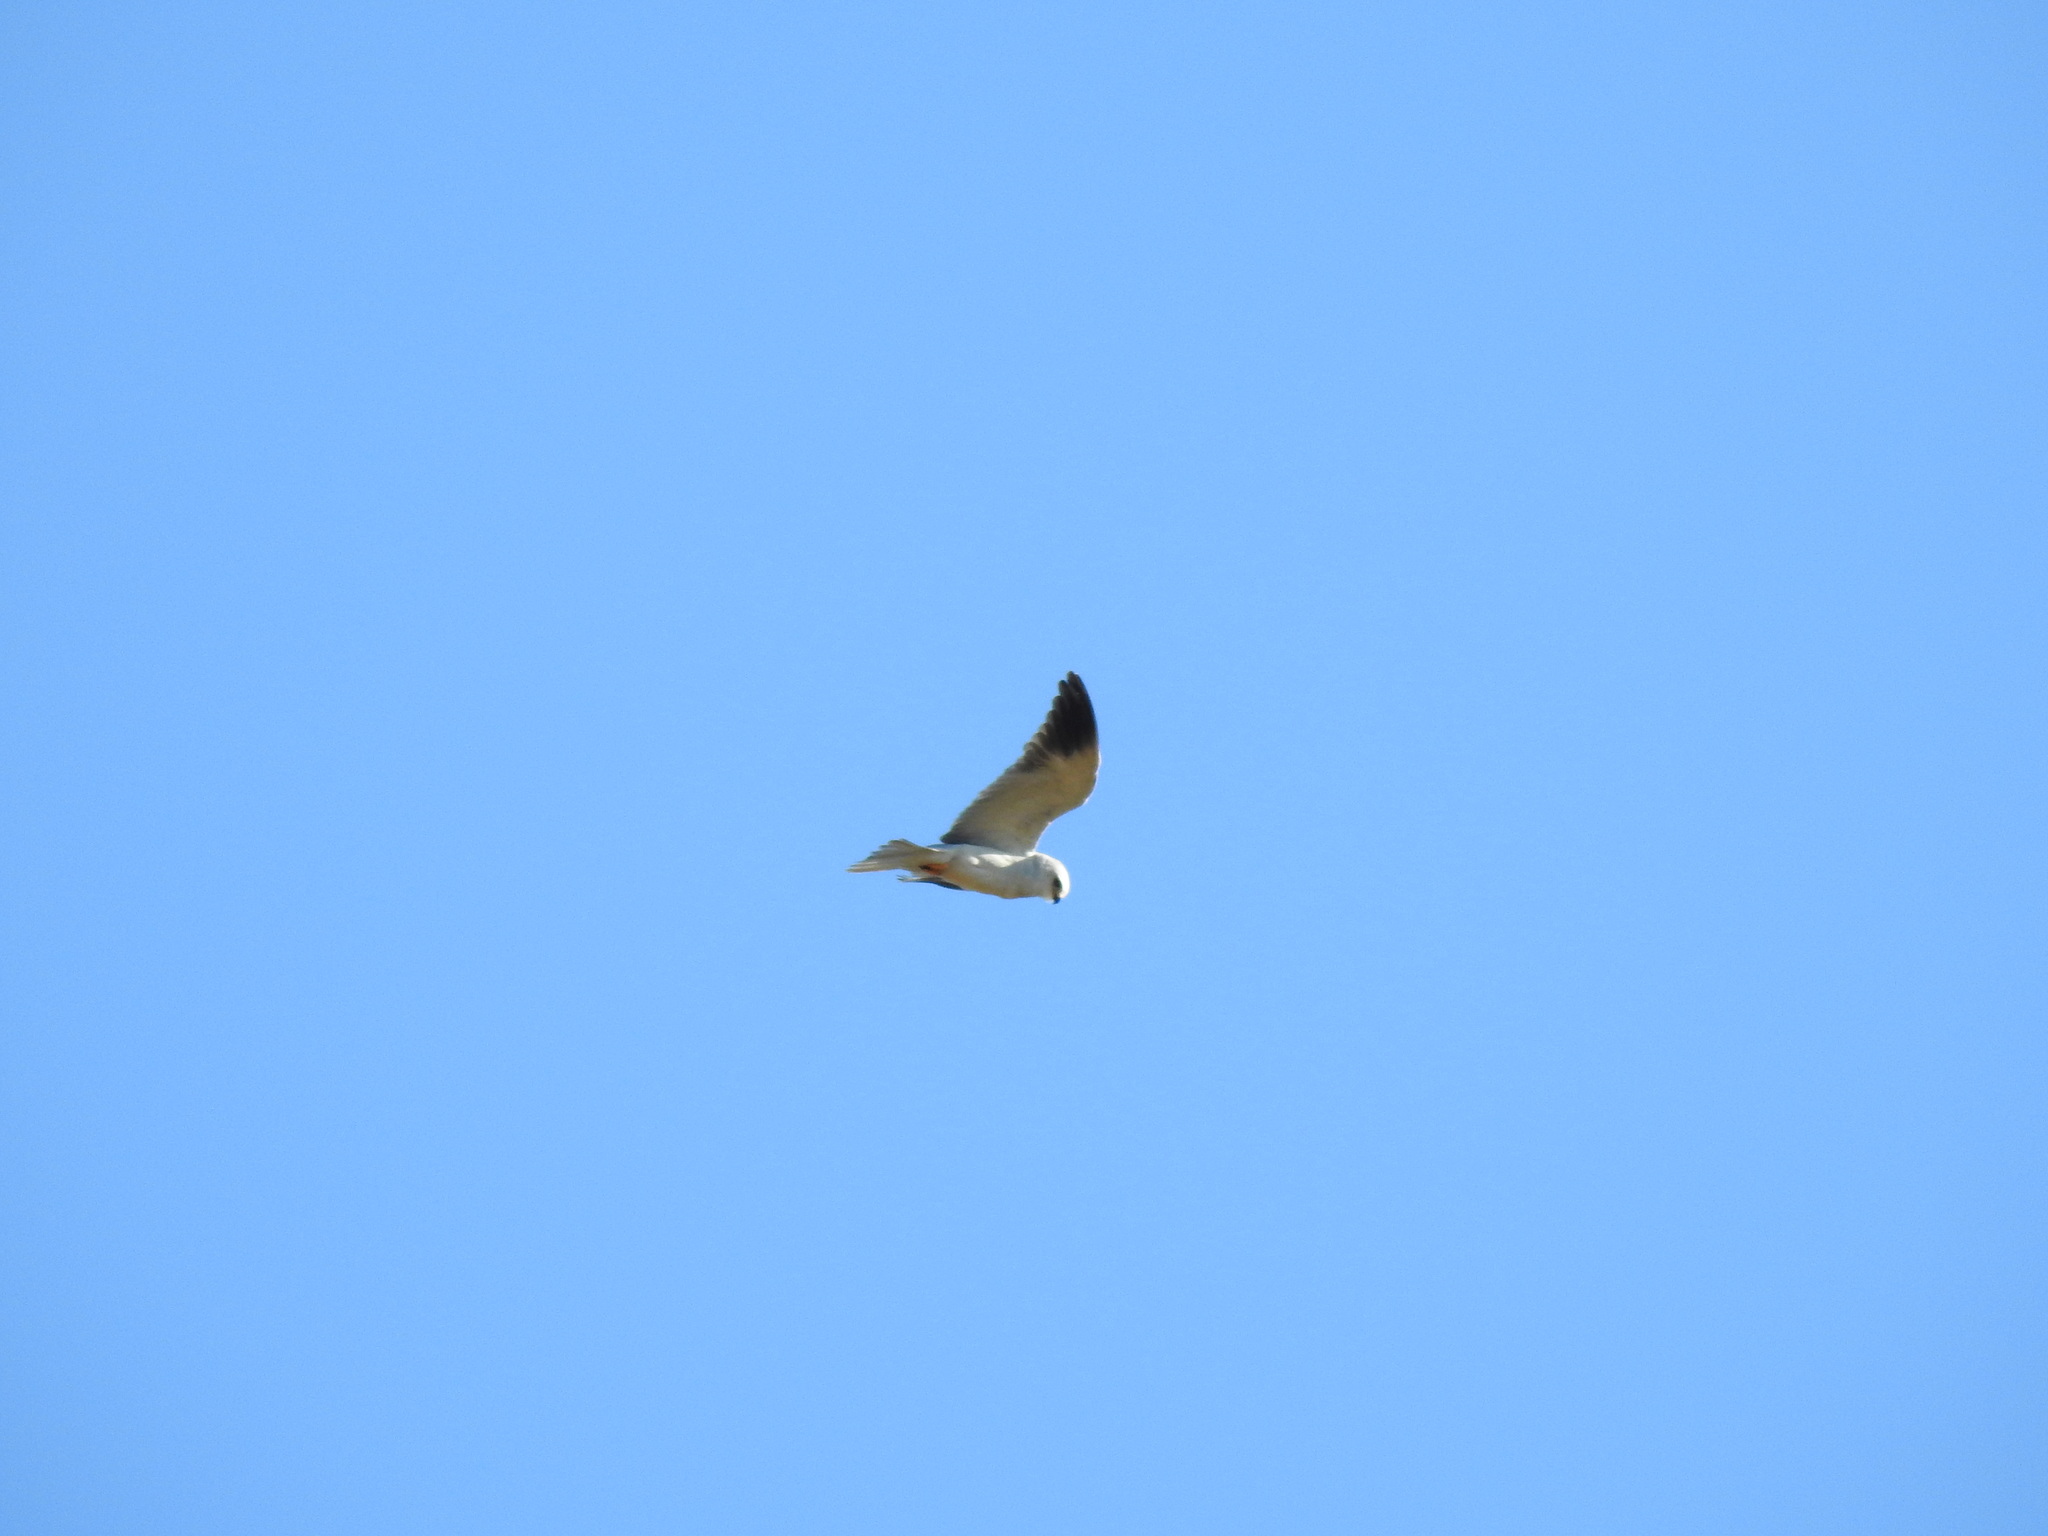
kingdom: Animalia
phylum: Chordata
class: Aves
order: Accipitriformes
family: Accipitridae
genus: Elanus
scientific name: Elanus caeruleus
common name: Black-winged kite
